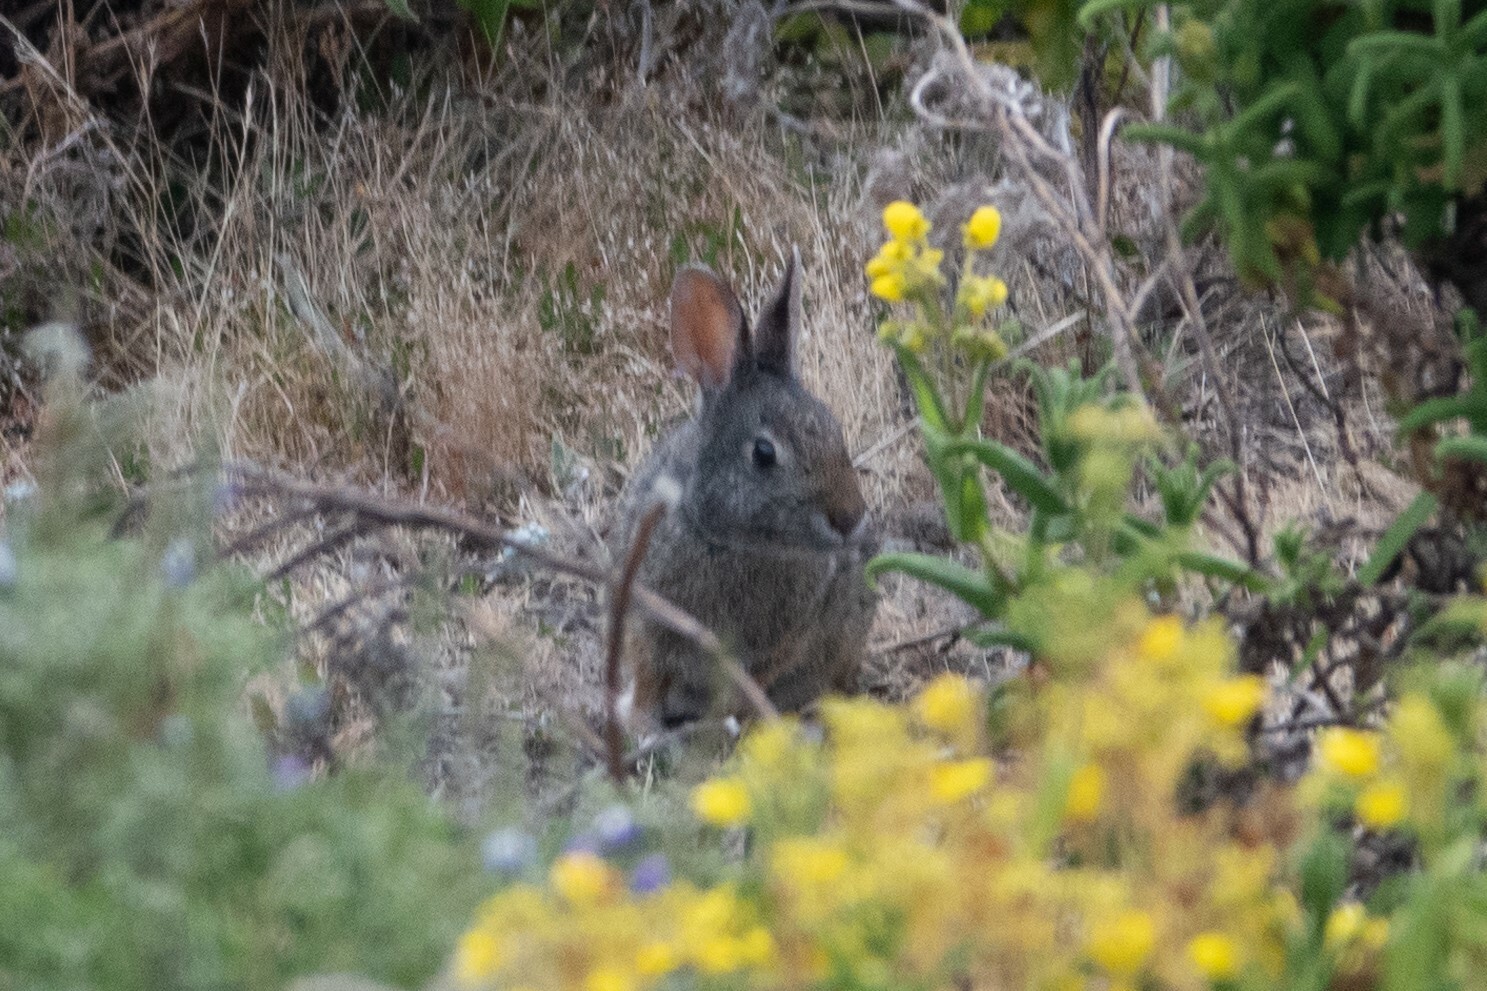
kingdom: Animalia
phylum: Chordata
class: Mammalia
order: Lagomorpha
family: Leporidae
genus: Sylvilagus
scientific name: Sylvilagus andinus
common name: Andean cottontail
